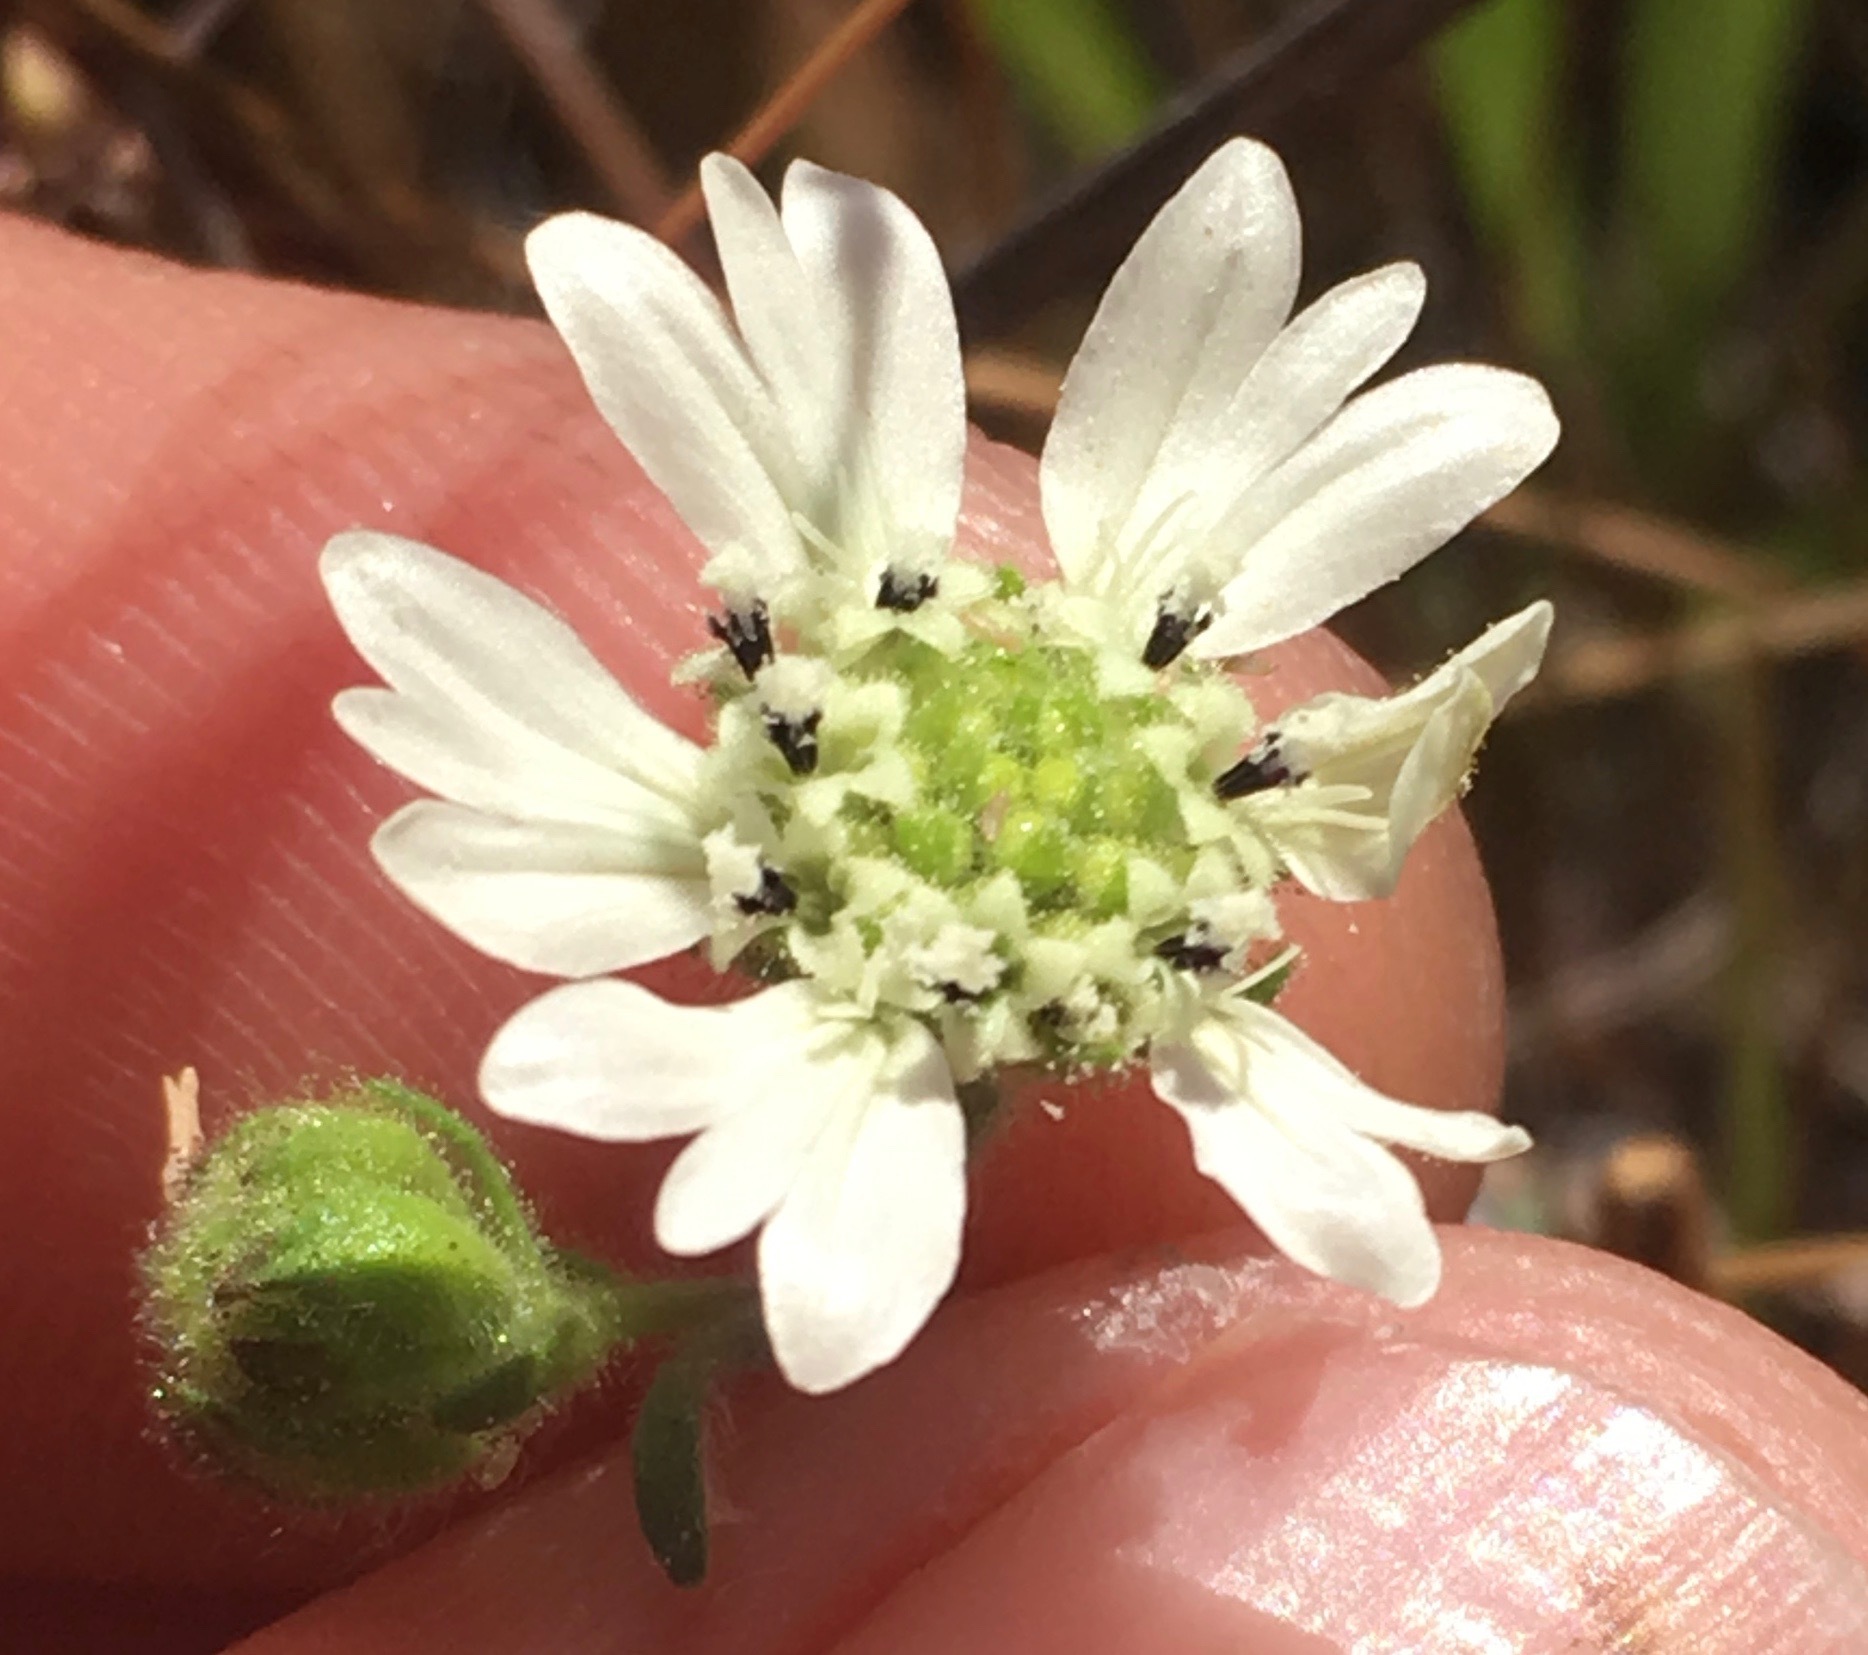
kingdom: Plantae
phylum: Tracheophyta
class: Magnoliopsida
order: Asterales
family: Asteraceae
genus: Hemizonia
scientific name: Hemizonia congesta
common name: Hayfield tarweed
